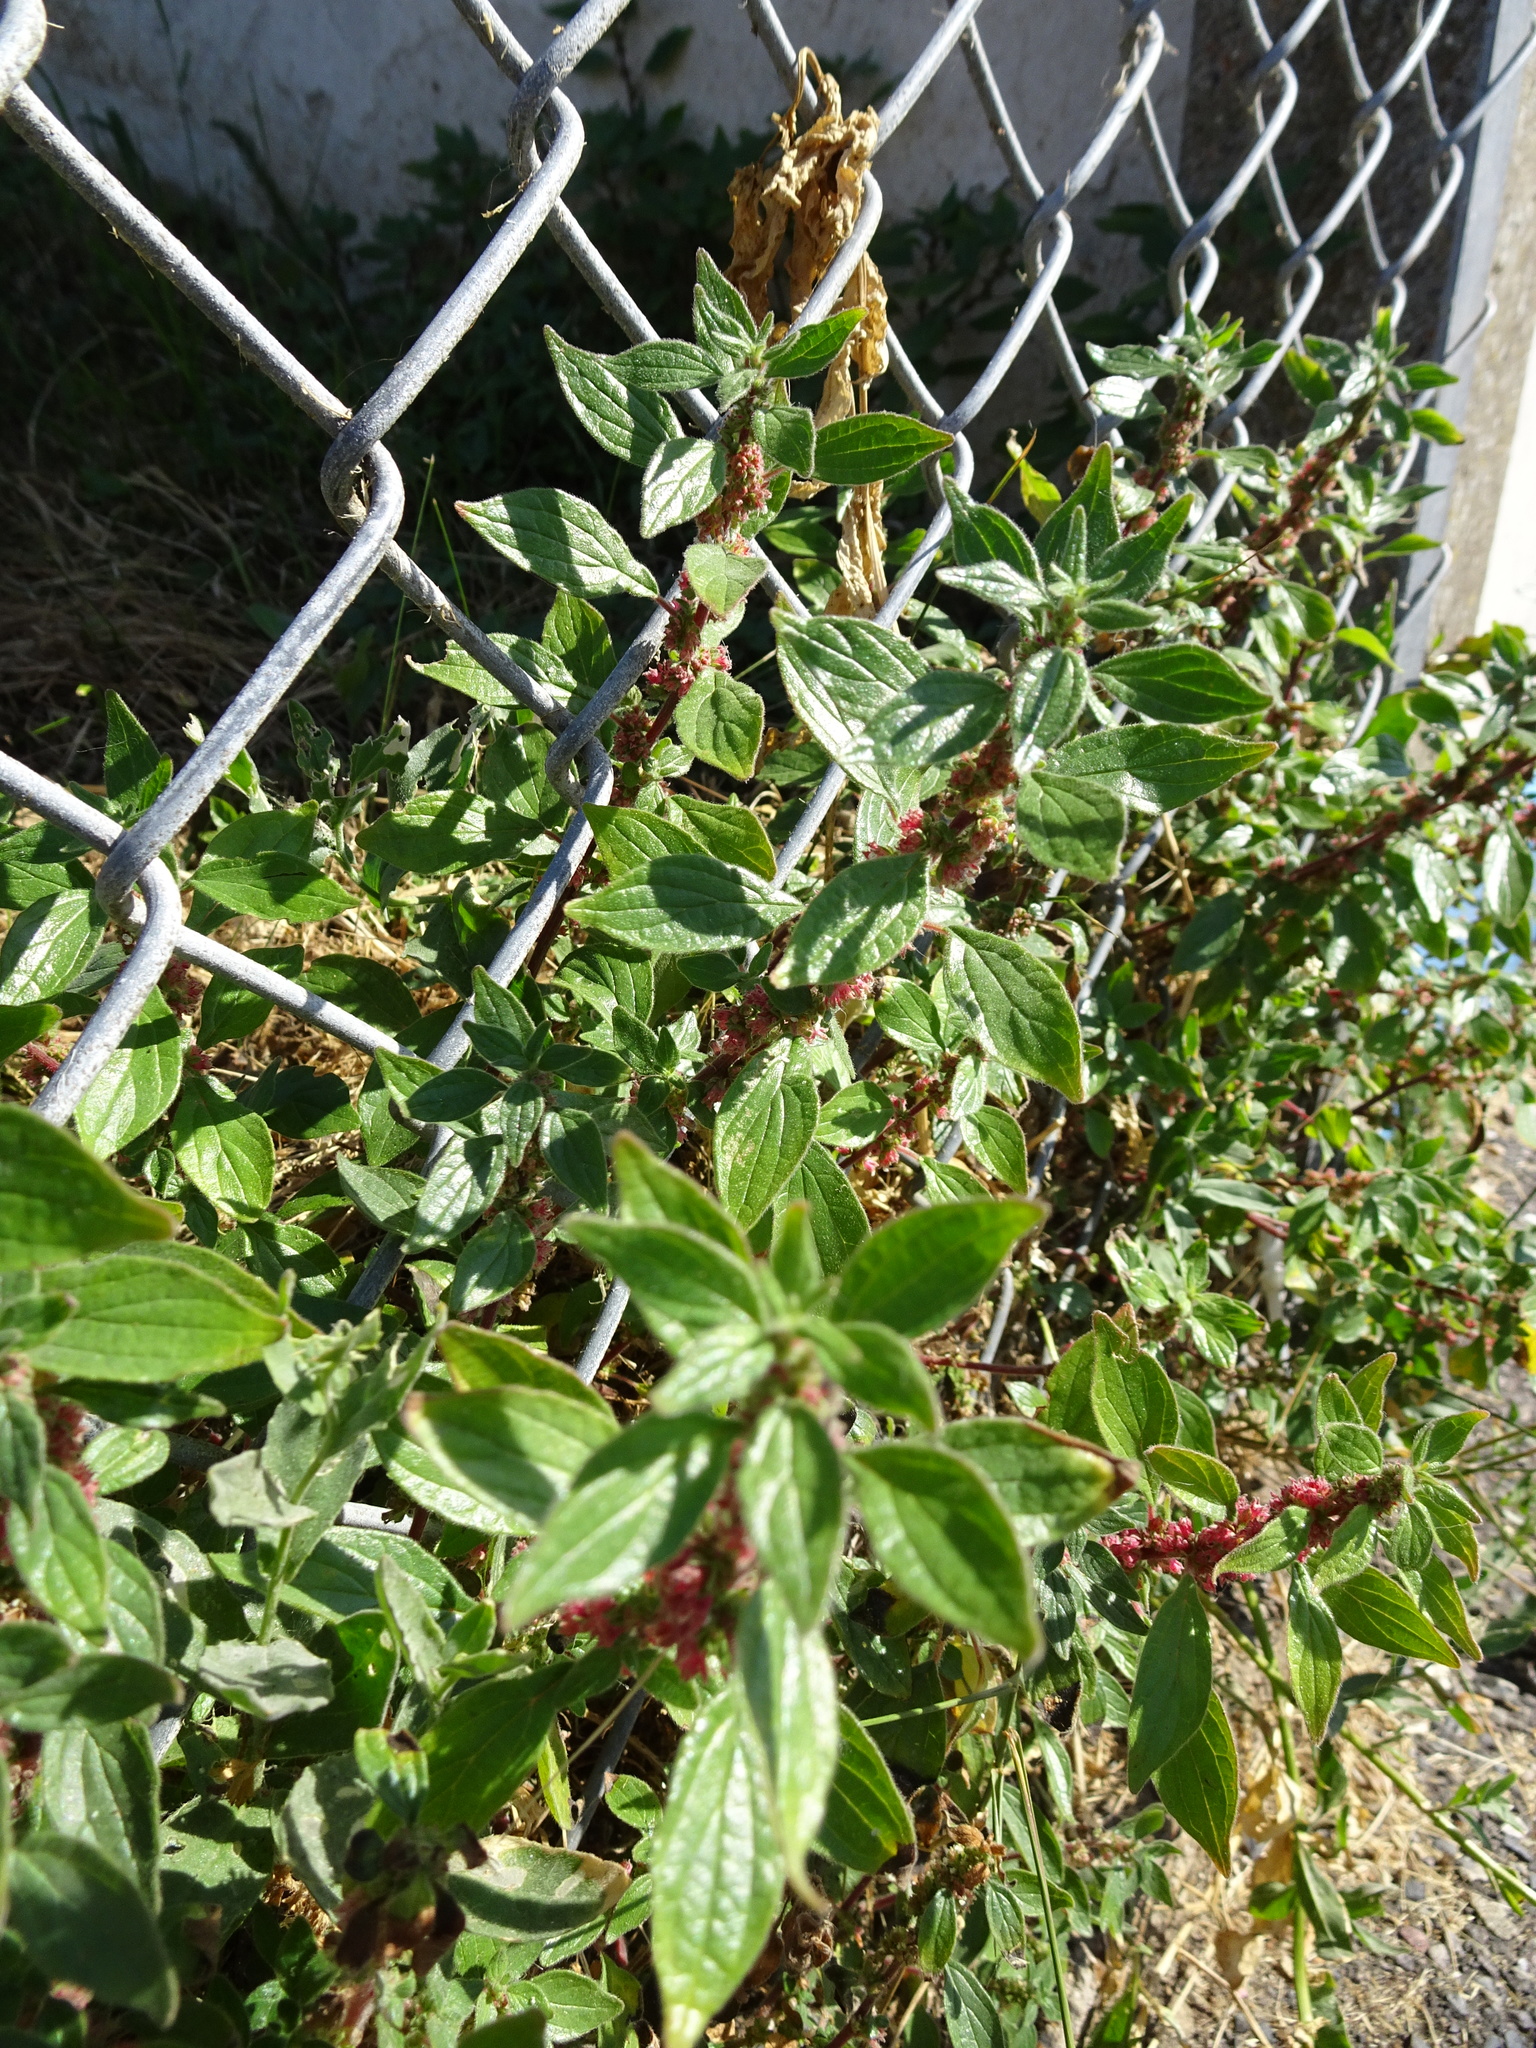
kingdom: Plantae
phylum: Tracheophyta
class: Magnoliopsida
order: Rosales
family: Urticaceae
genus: Parietaria
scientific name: Parietaria judaica
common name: Pellitory-of-the-wall
